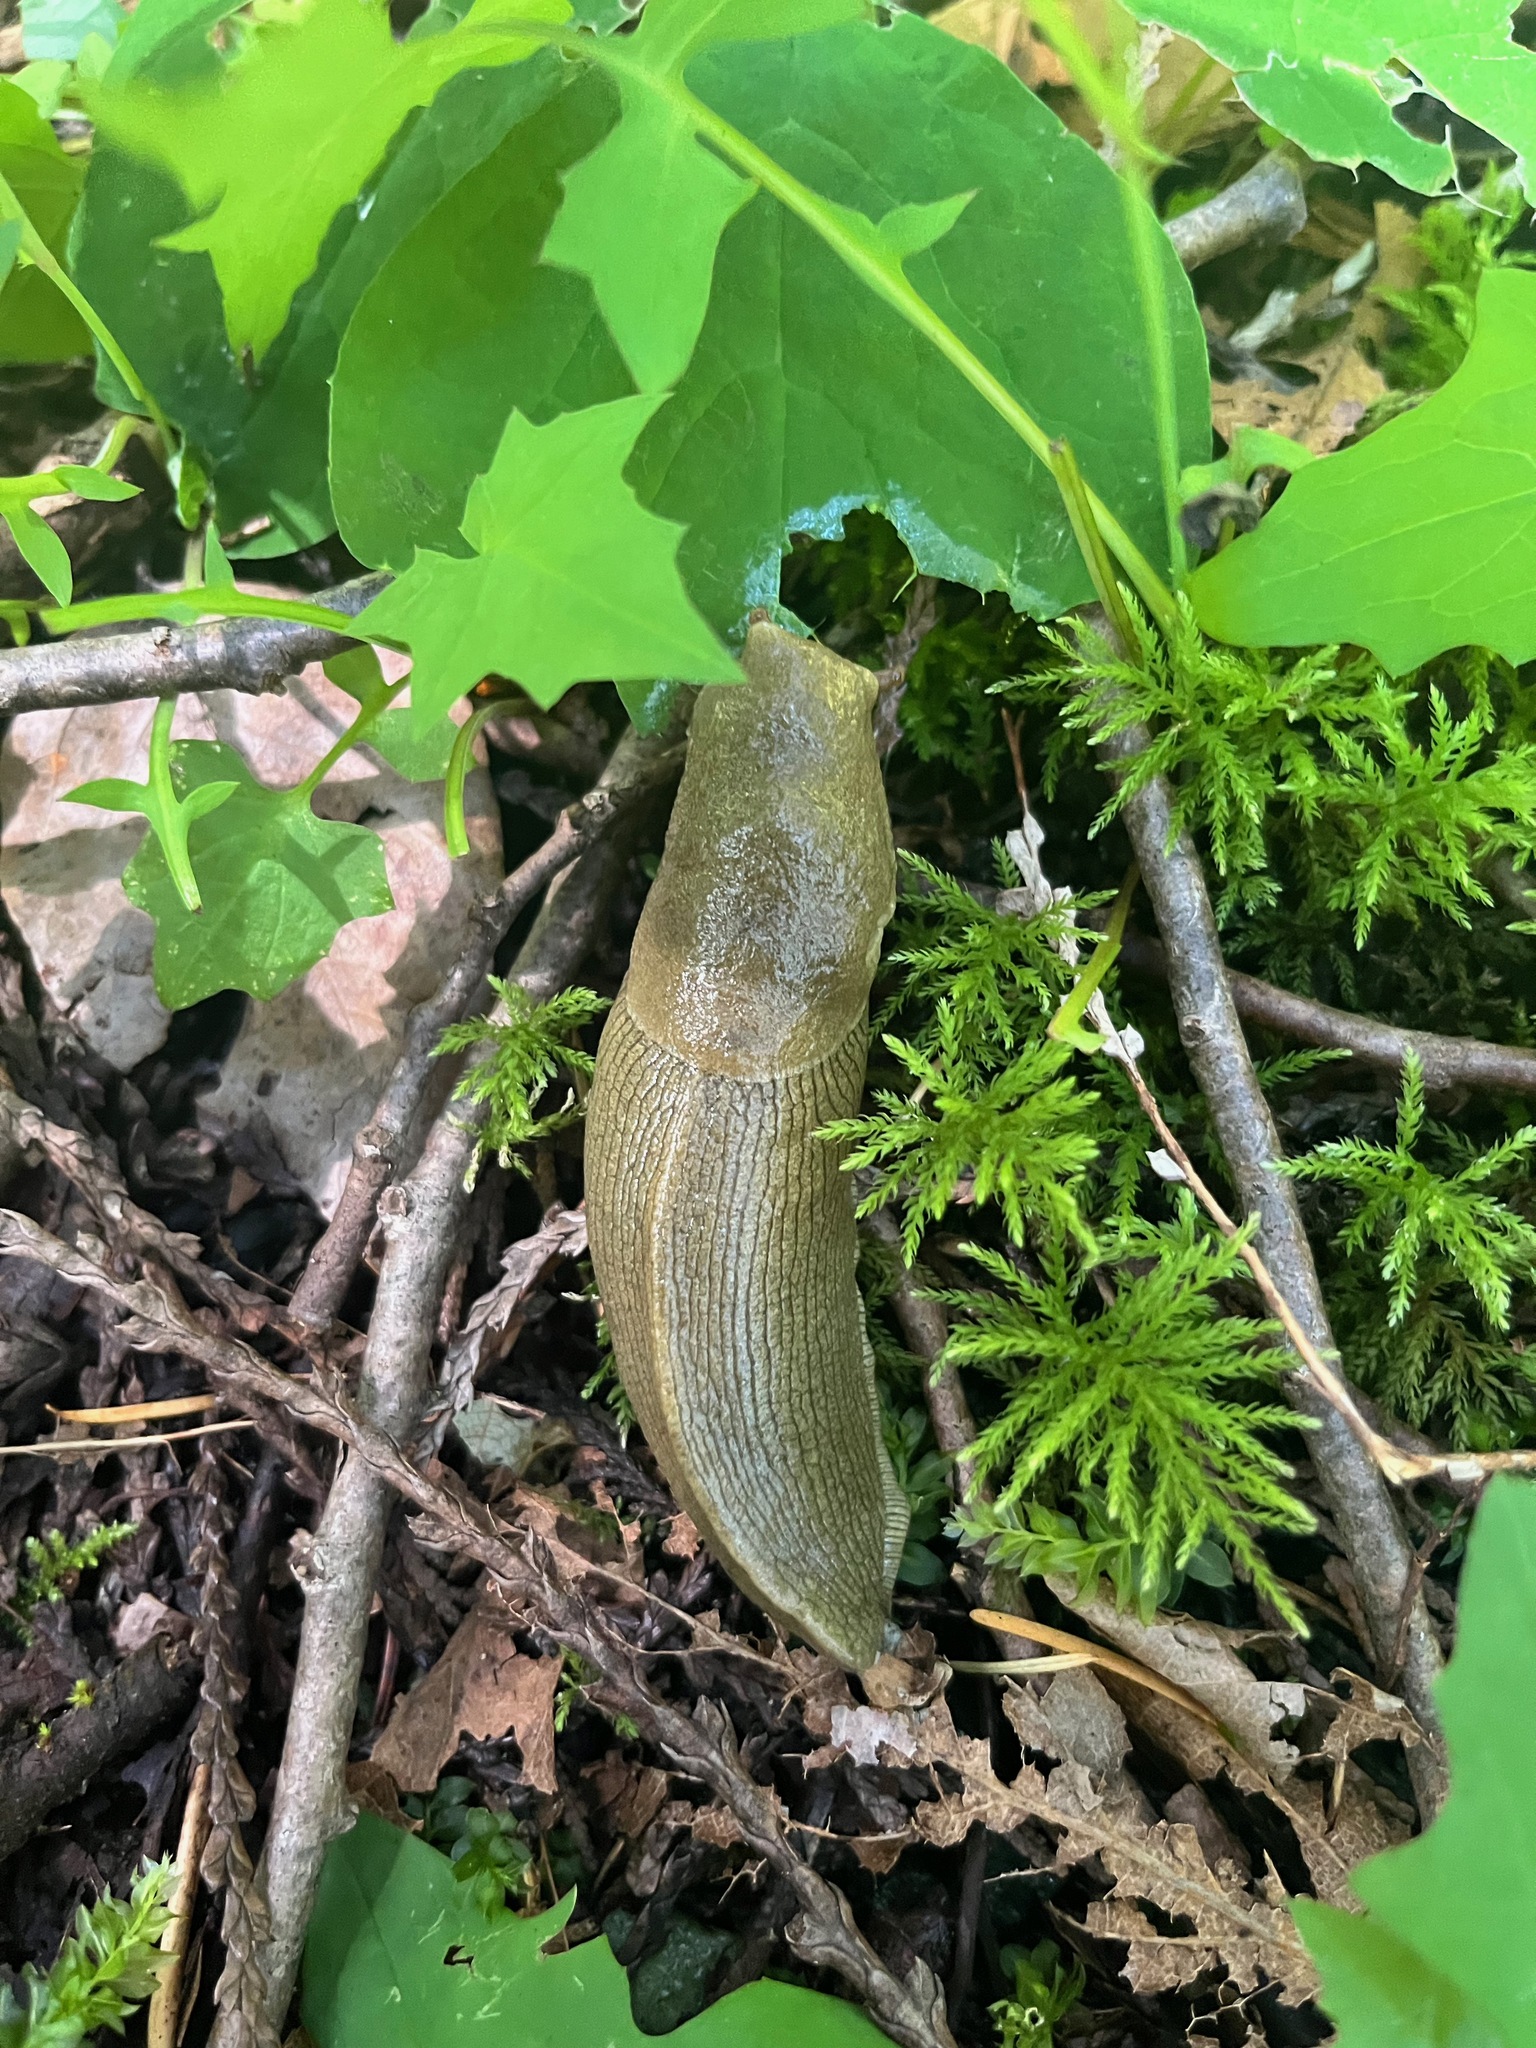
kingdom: Animalia
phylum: Mollusca
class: Gastropoda
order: Stylommatophora
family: Ariolimacidae
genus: Ariolimax
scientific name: Ariolimax columbianus
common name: Pacific banana slug
